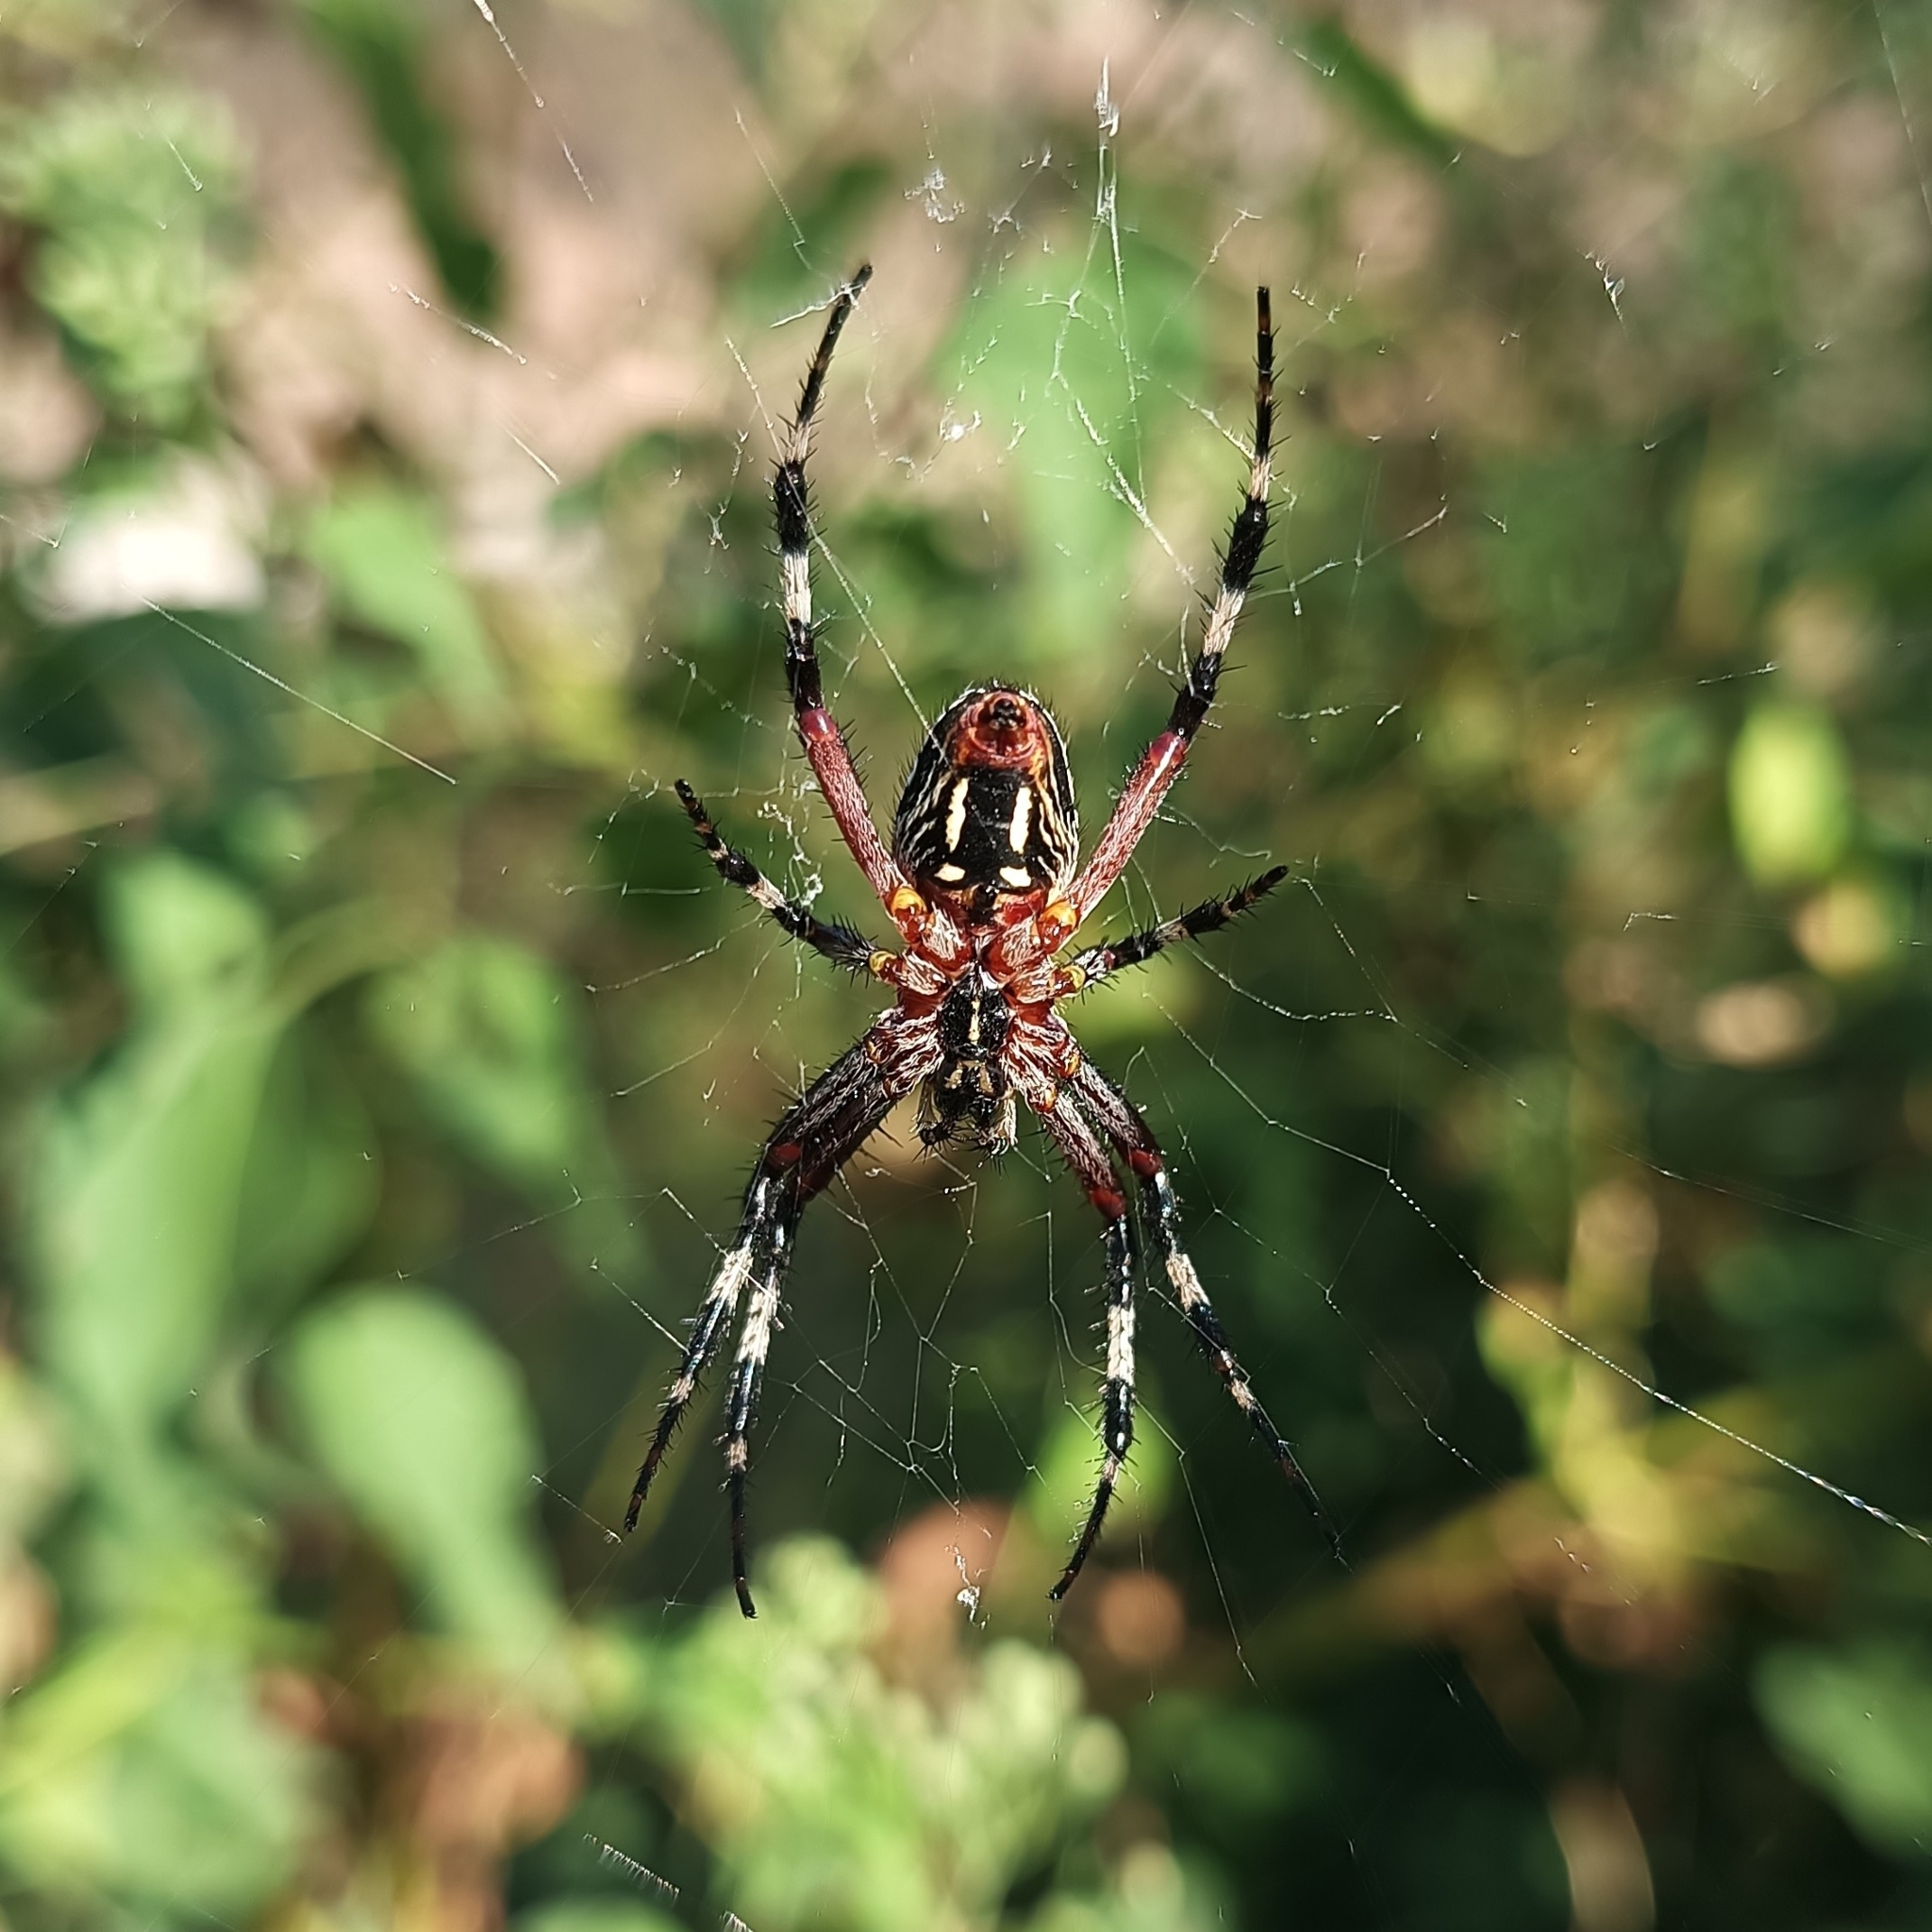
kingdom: Animalia
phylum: Arthropoda
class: Arachnida
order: Araneae
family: Araneidae
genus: Neoscona
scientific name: Neoscona oaxacensis
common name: Orb weavers
